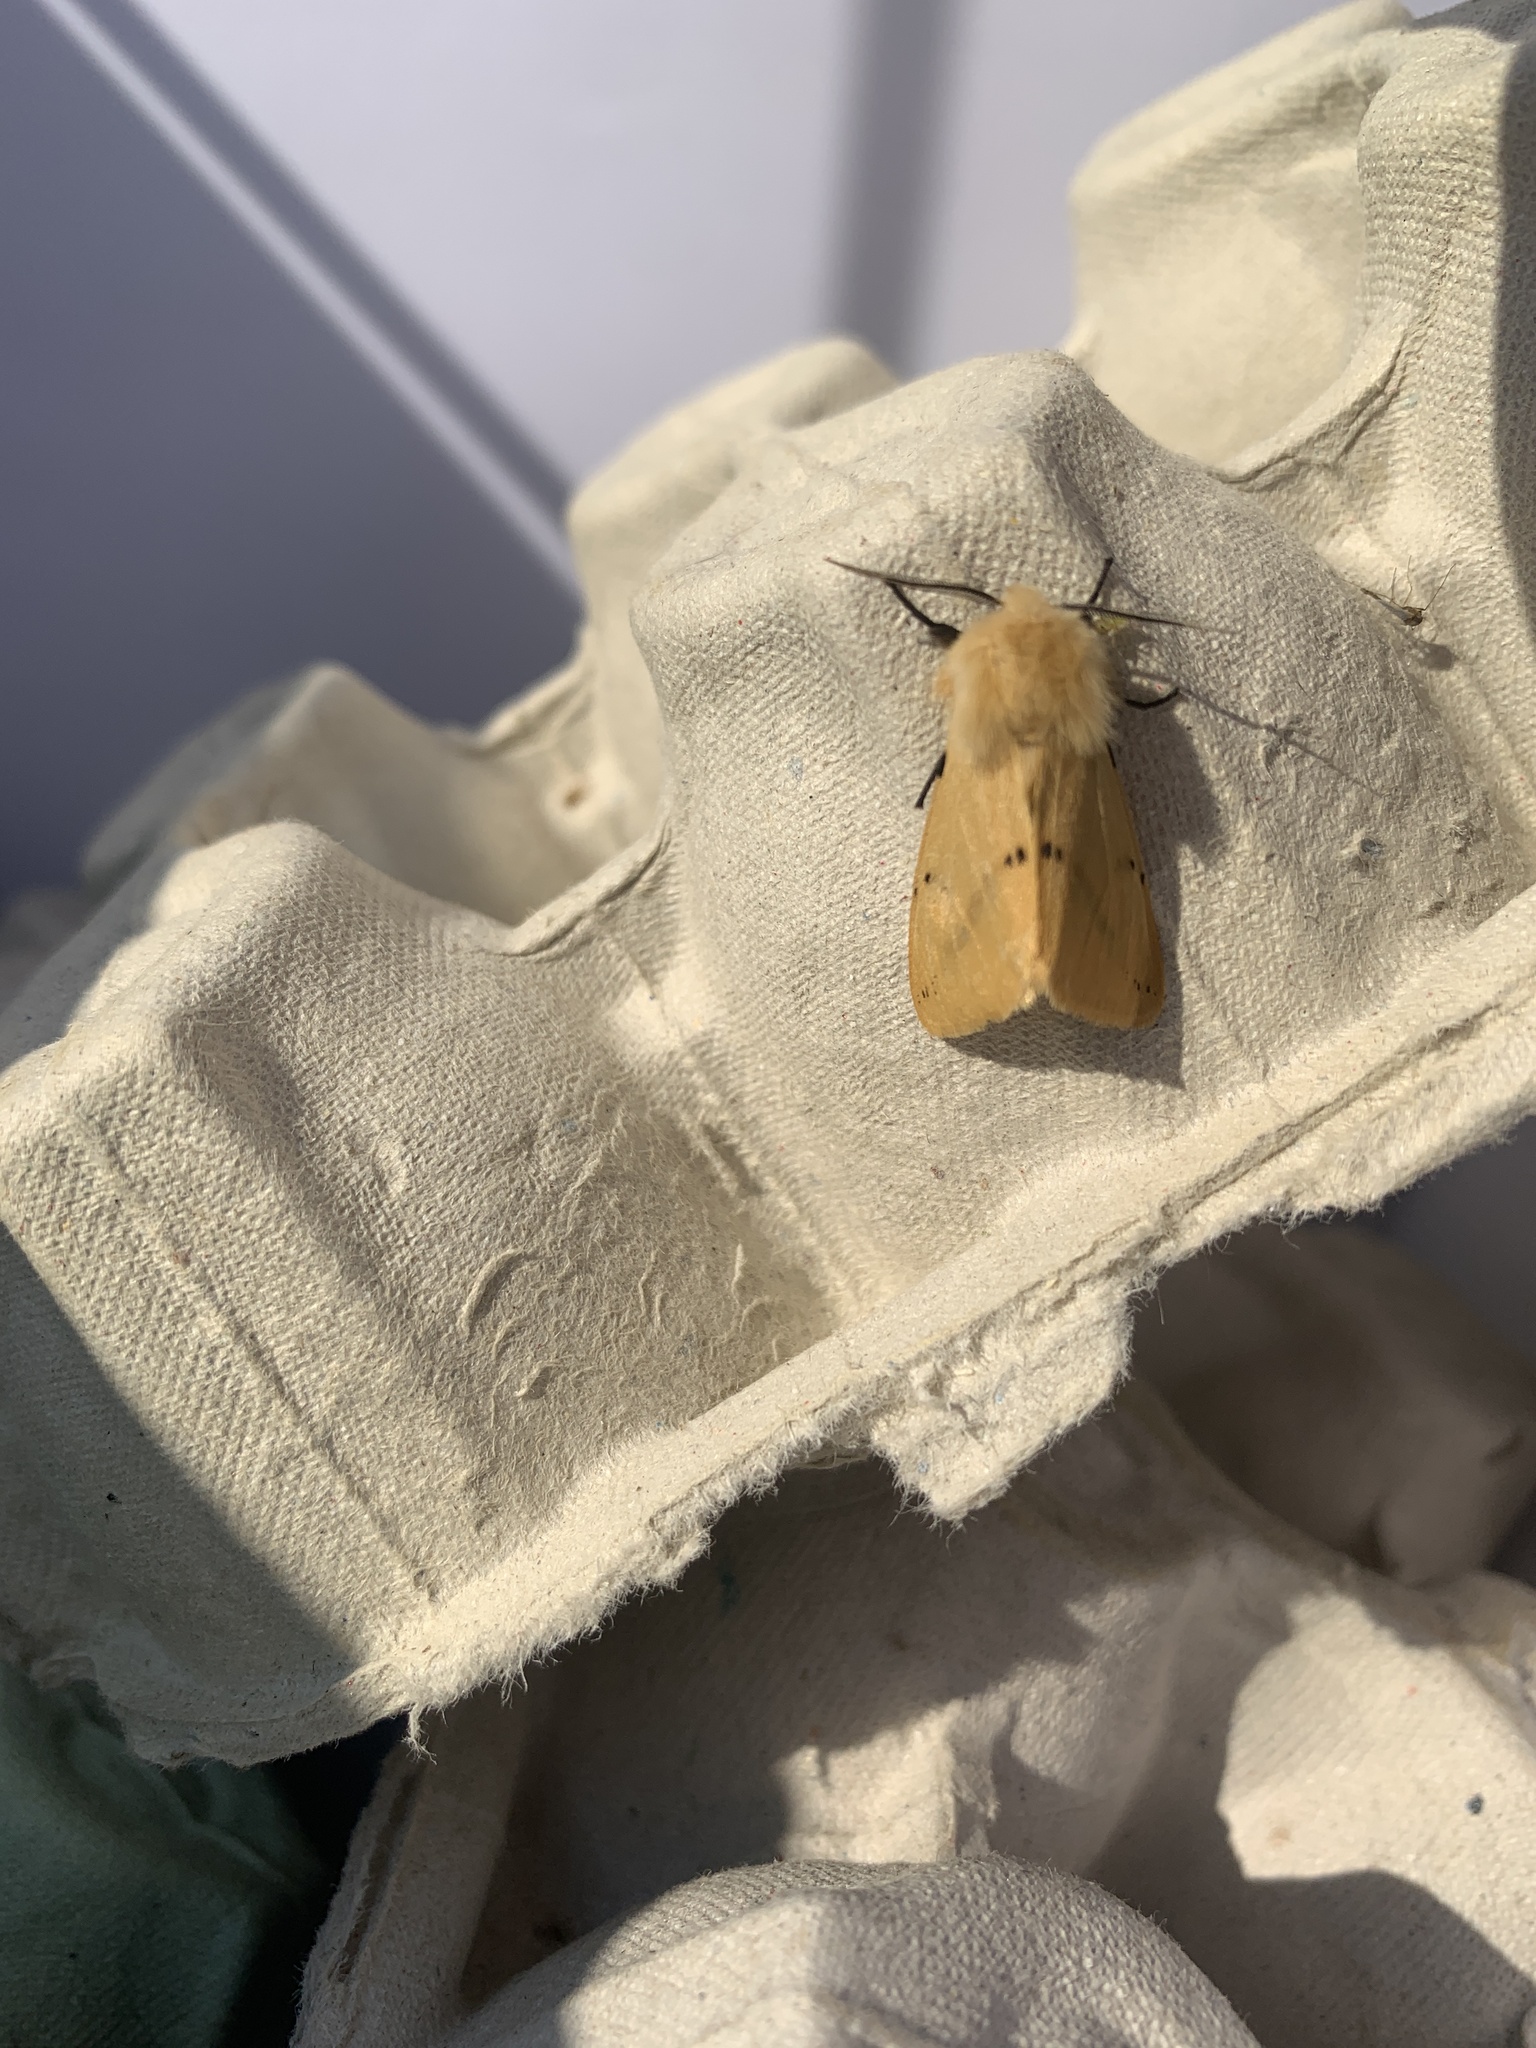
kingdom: Animalia
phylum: Arthropoda
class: Insecta
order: Lepidoptera
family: Erebidae
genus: Spilarctia
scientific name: Spilarctia lutea
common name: Buff ermine
